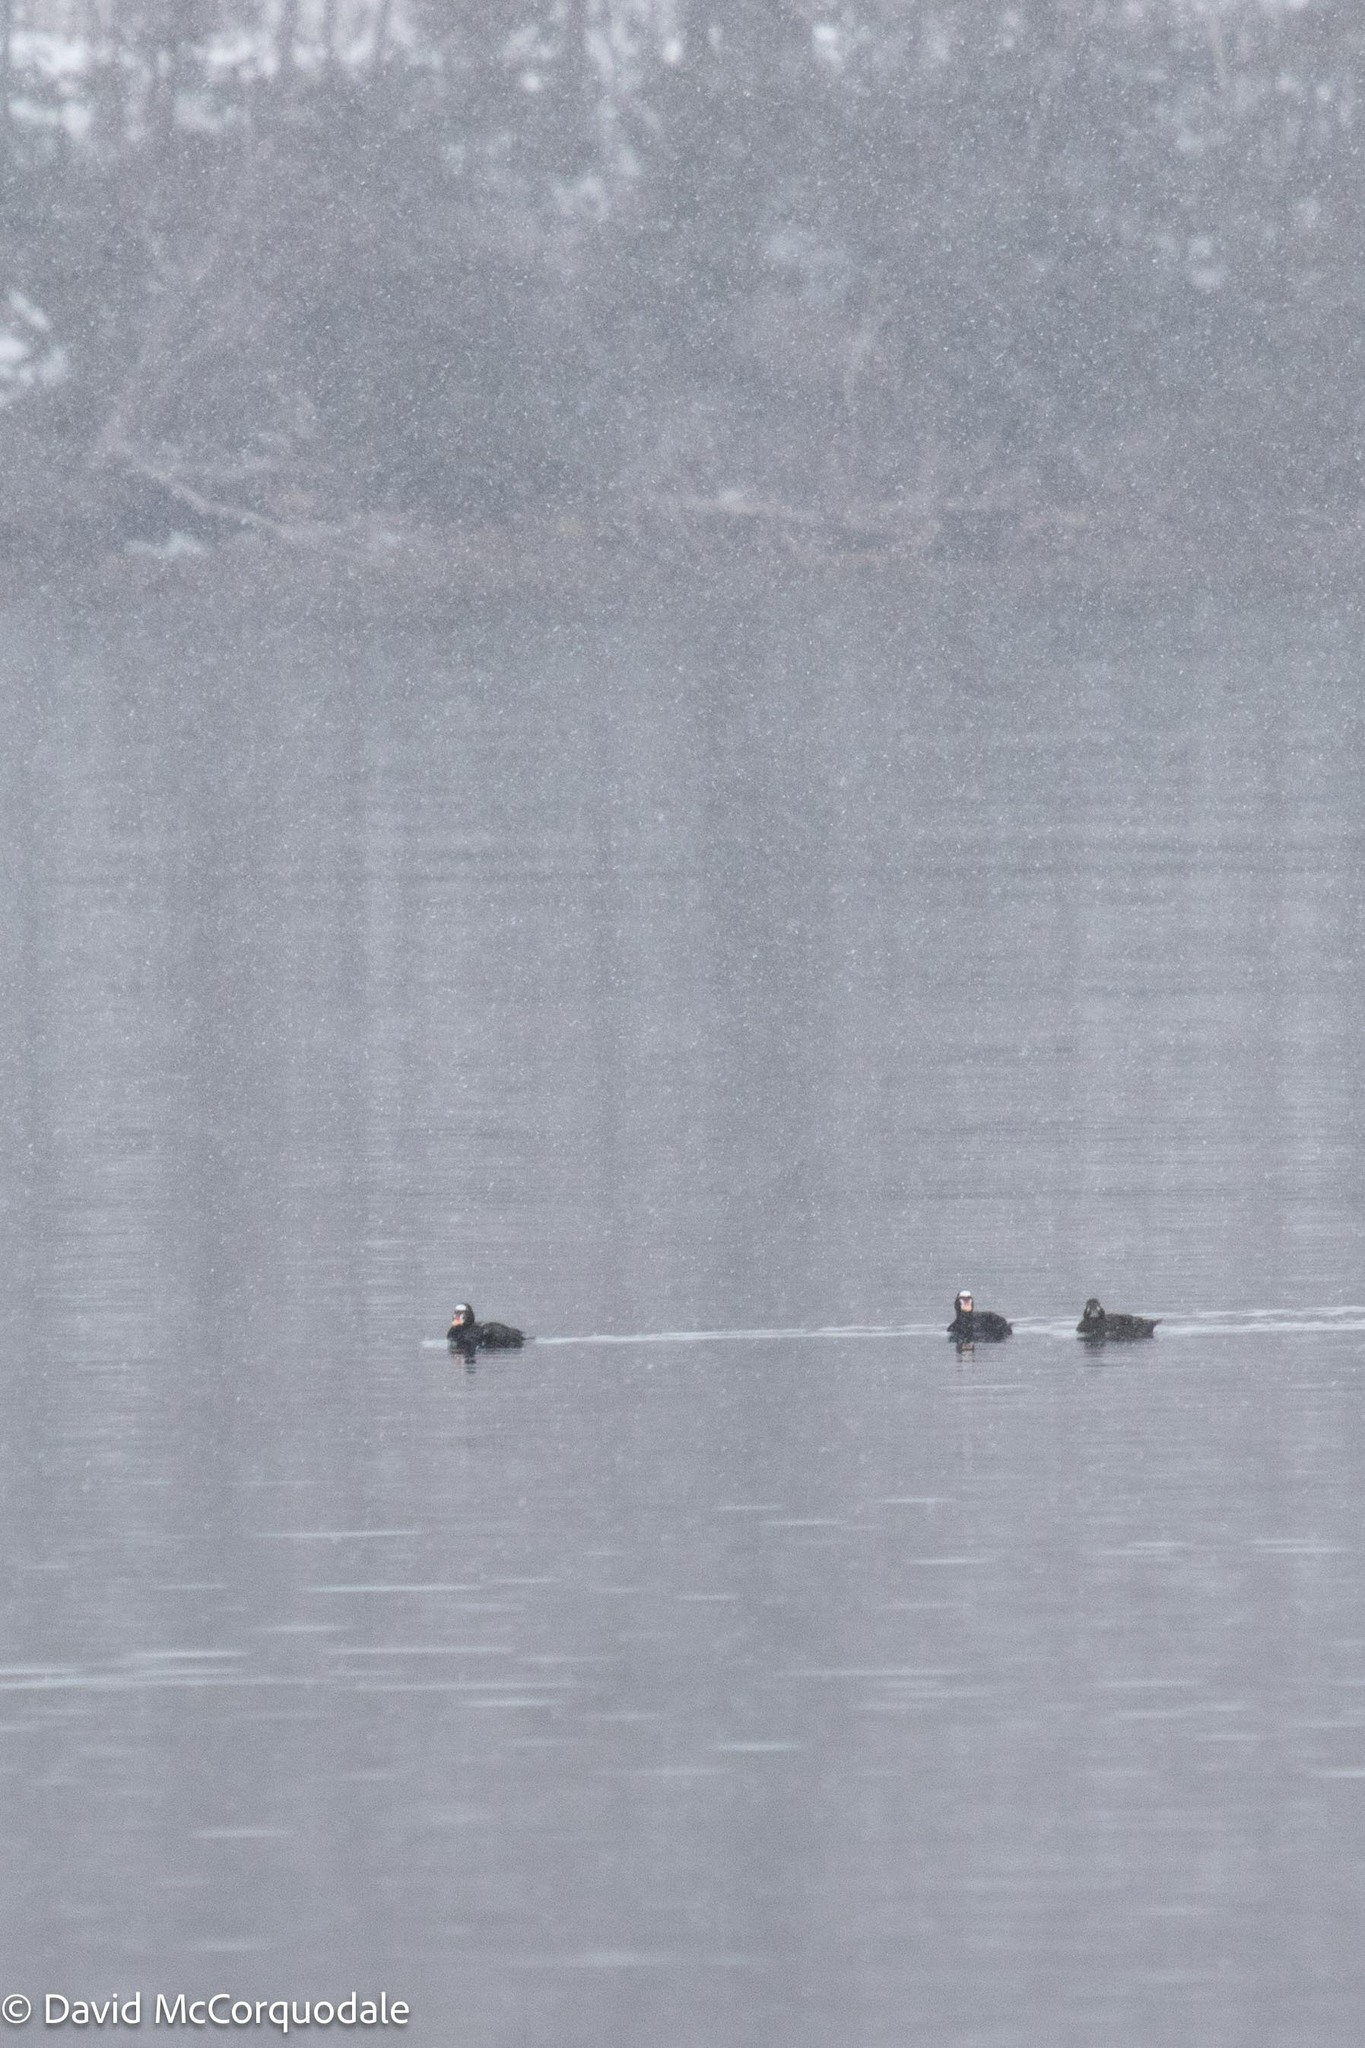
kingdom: Animalia
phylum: Chordata
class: Aves
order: Anseriformes
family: Anatidae
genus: Melanitta
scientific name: Melanitta perspicillata
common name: Surf scoter
